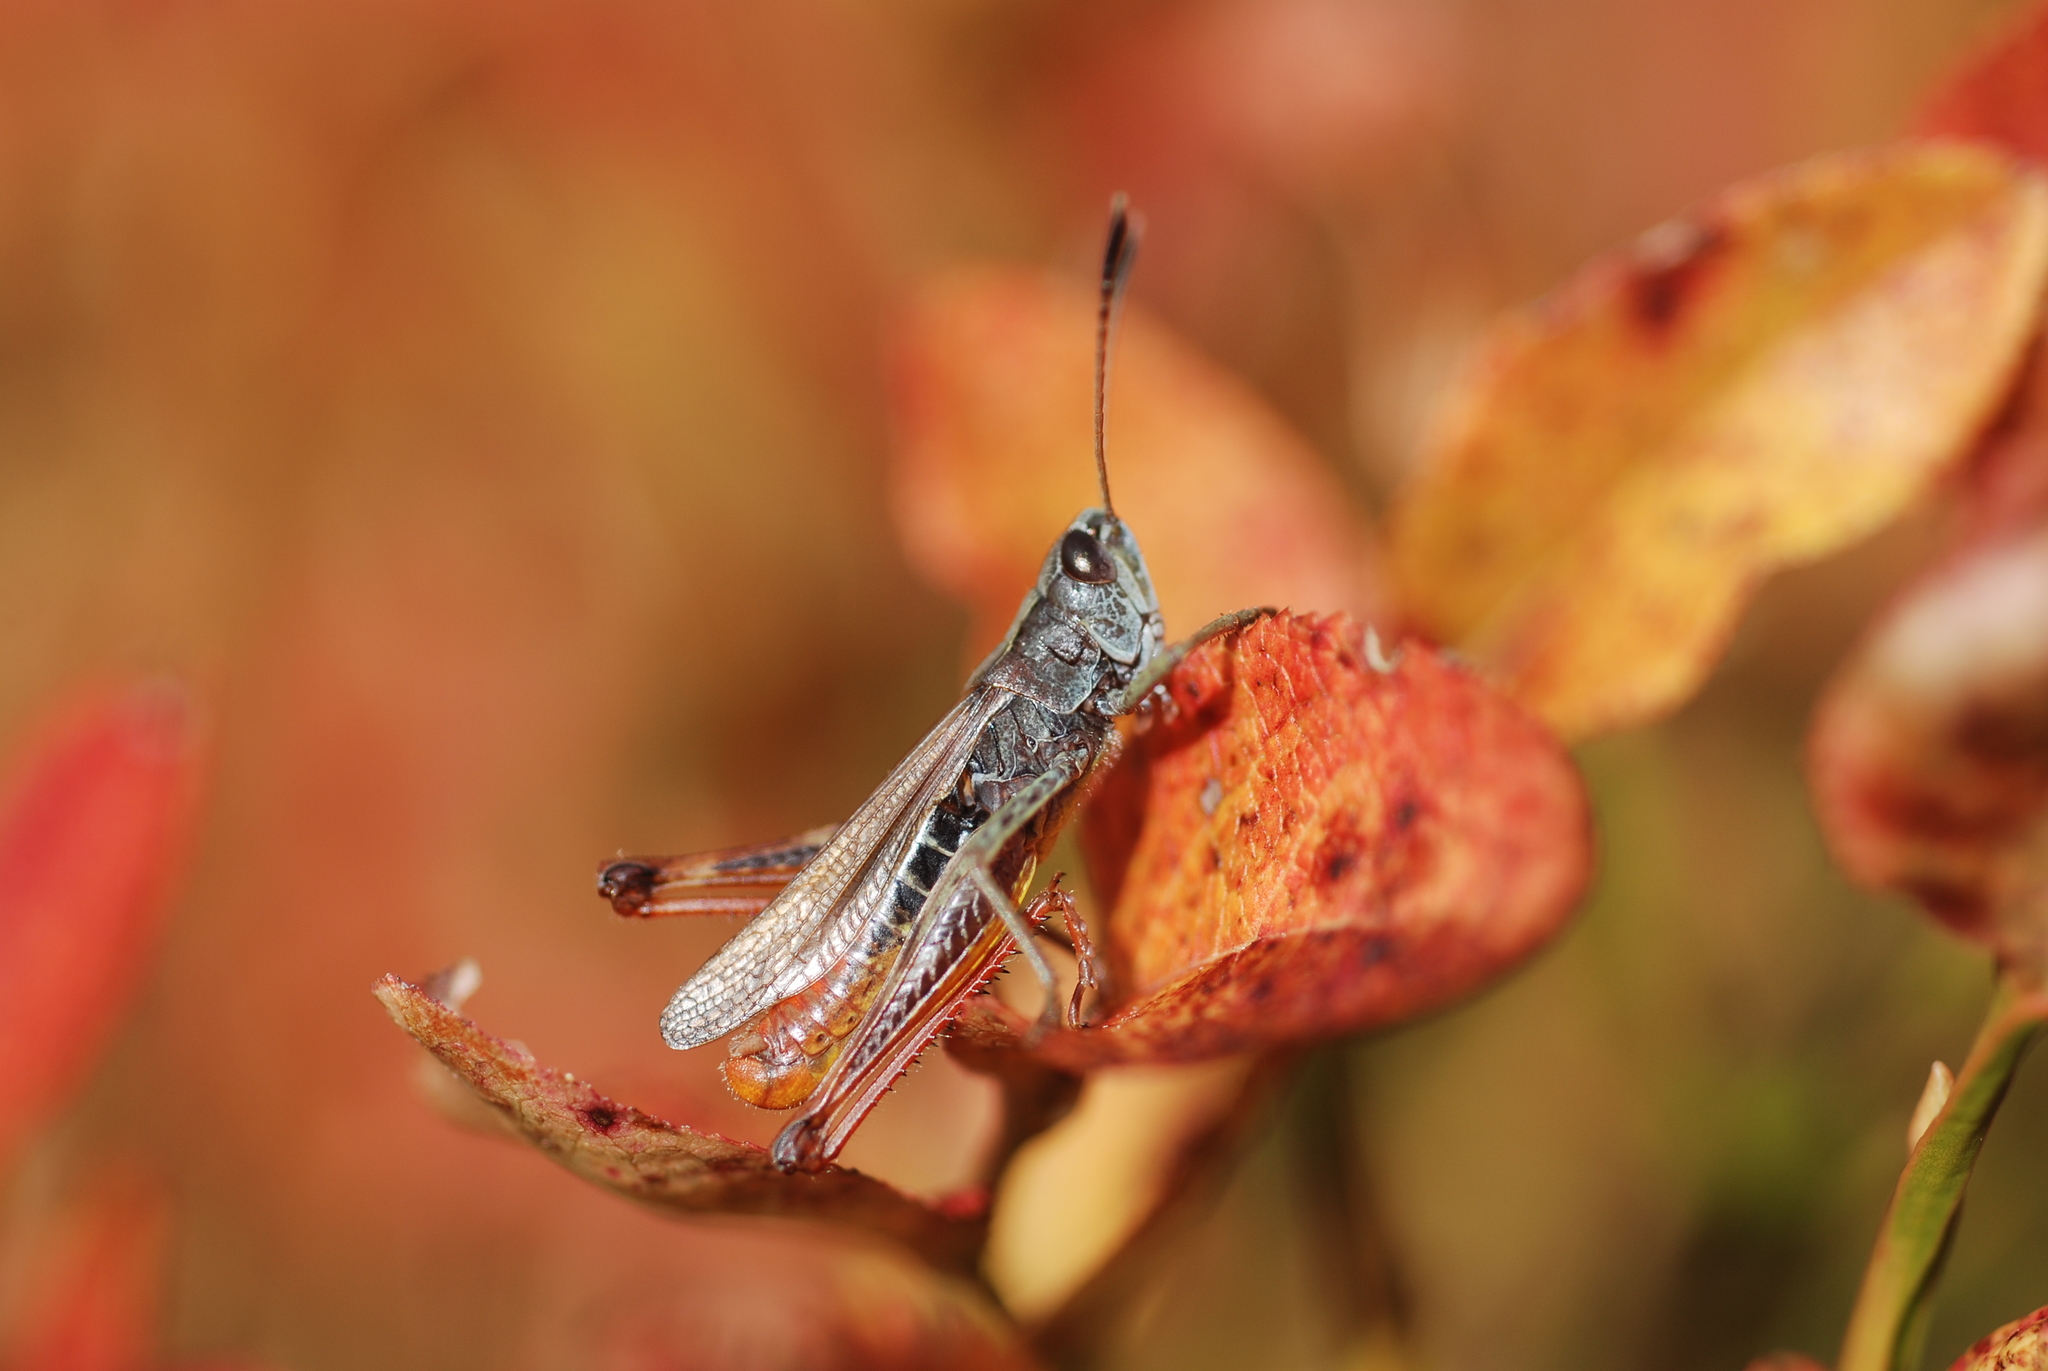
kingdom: Animalia
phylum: Arthropoda
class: Insecta
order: Orthoptera
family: Acrididae
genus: Gomphocerippus
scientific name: Gomphocerippus rufus
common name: Rufous grasshopper
